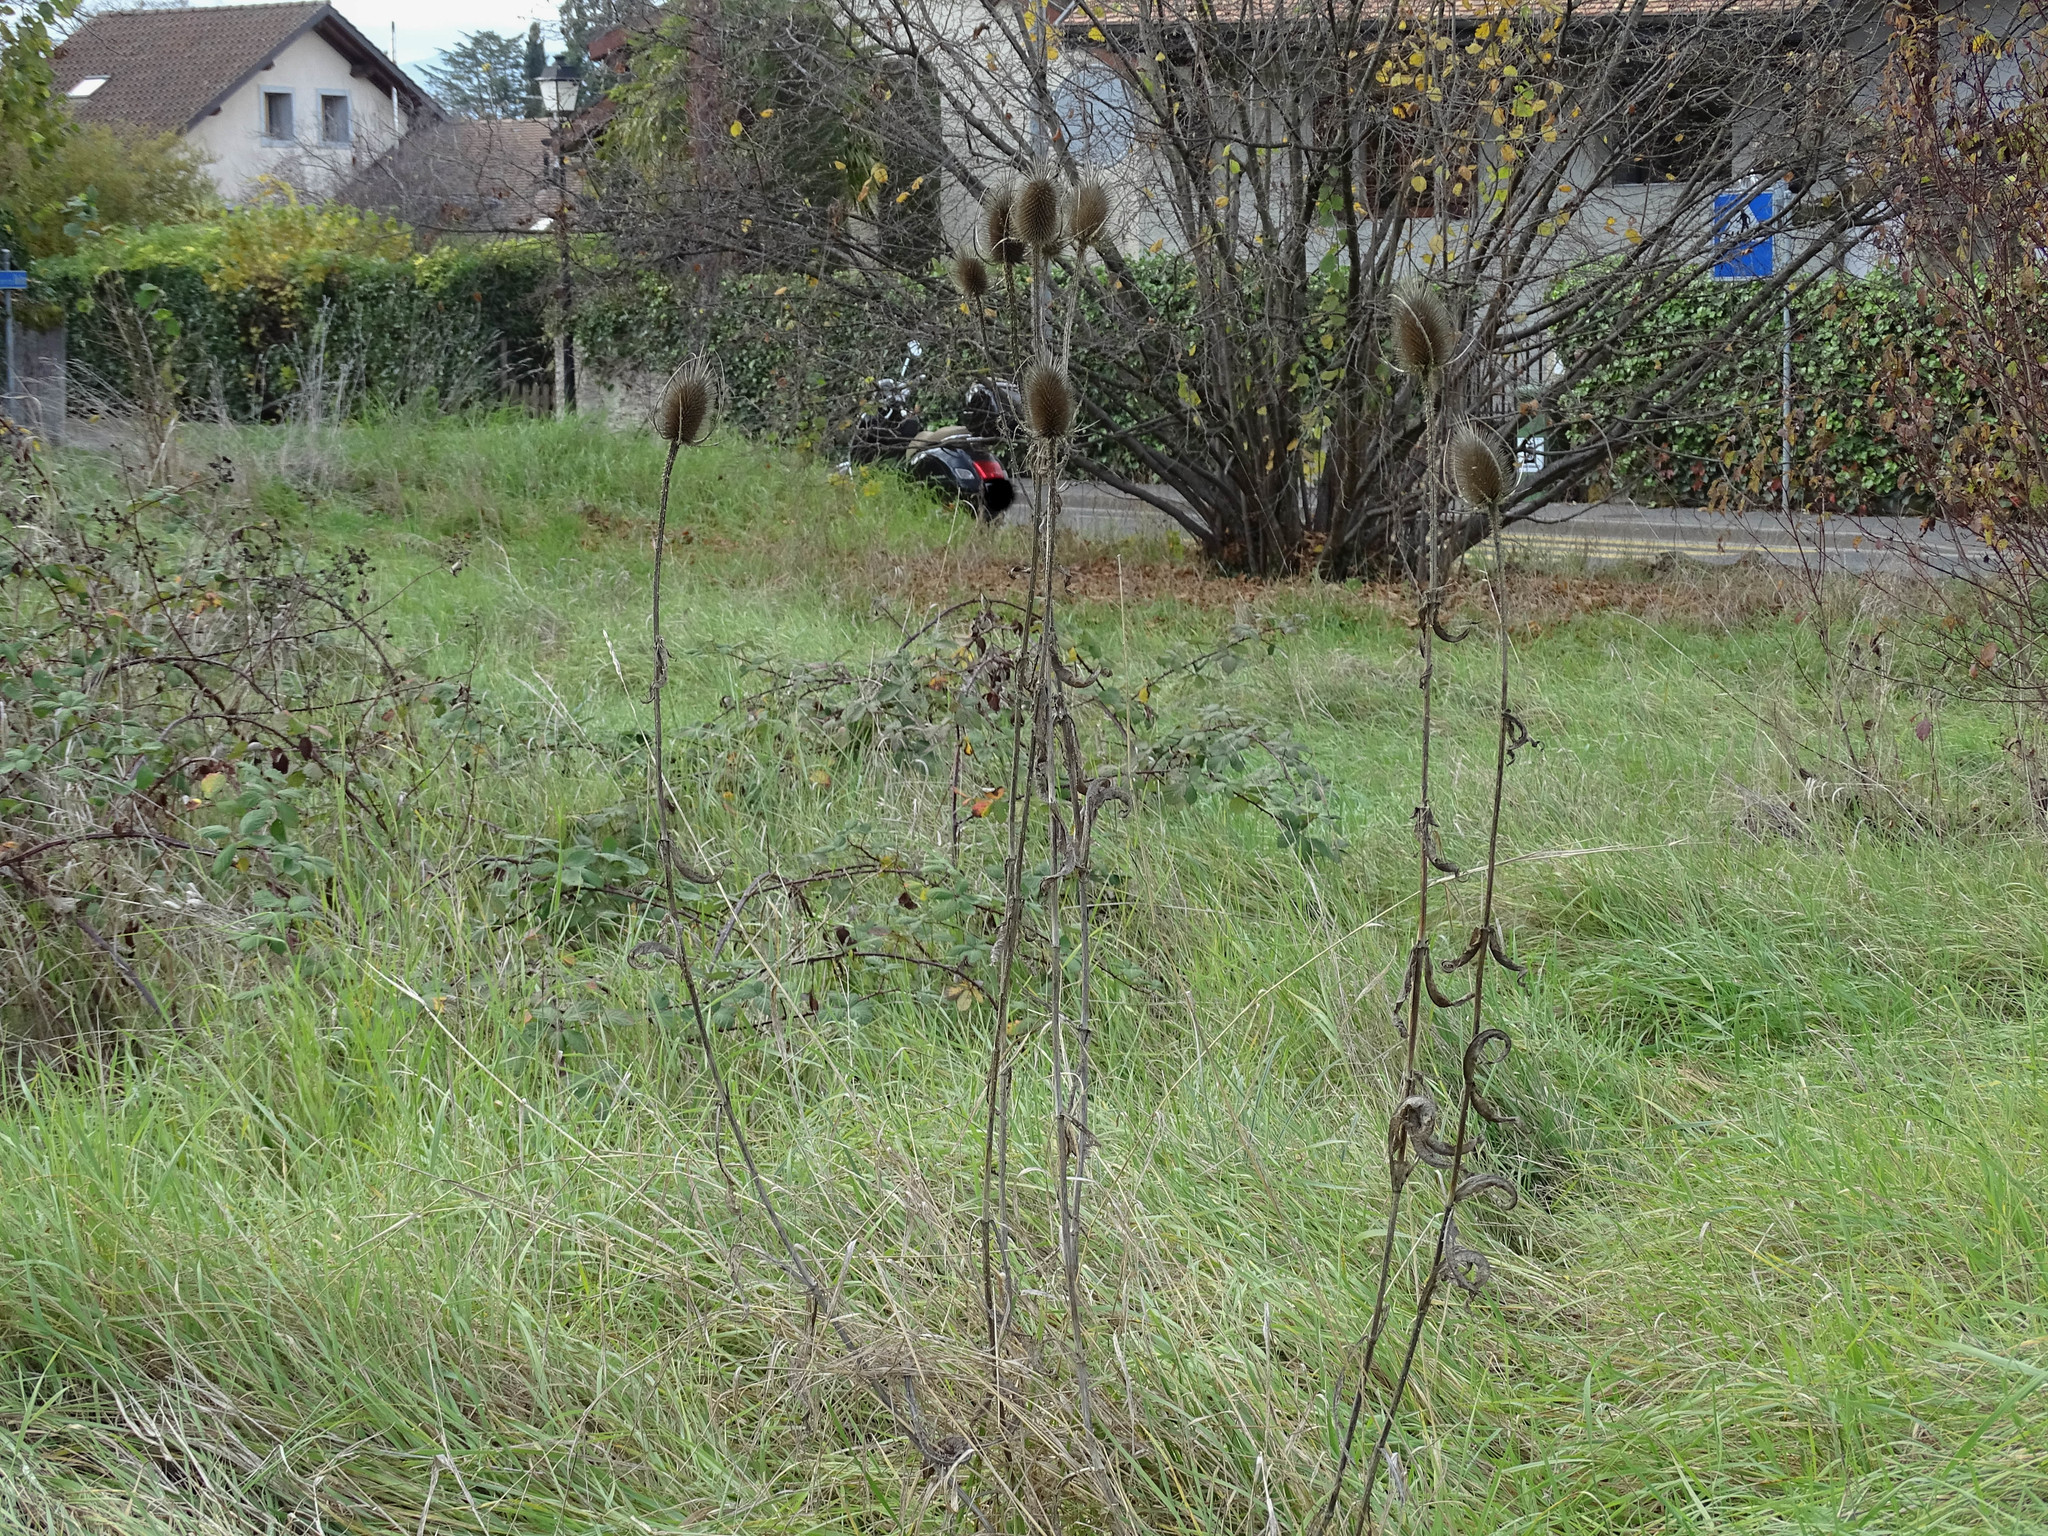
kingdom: Plantae
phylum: Tracheophyta
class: Magnoliopsida
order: Dipsacales
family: Caprifoliaceae
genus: Dipsacus
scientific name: Dipsacus fullonum
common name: Teasel
